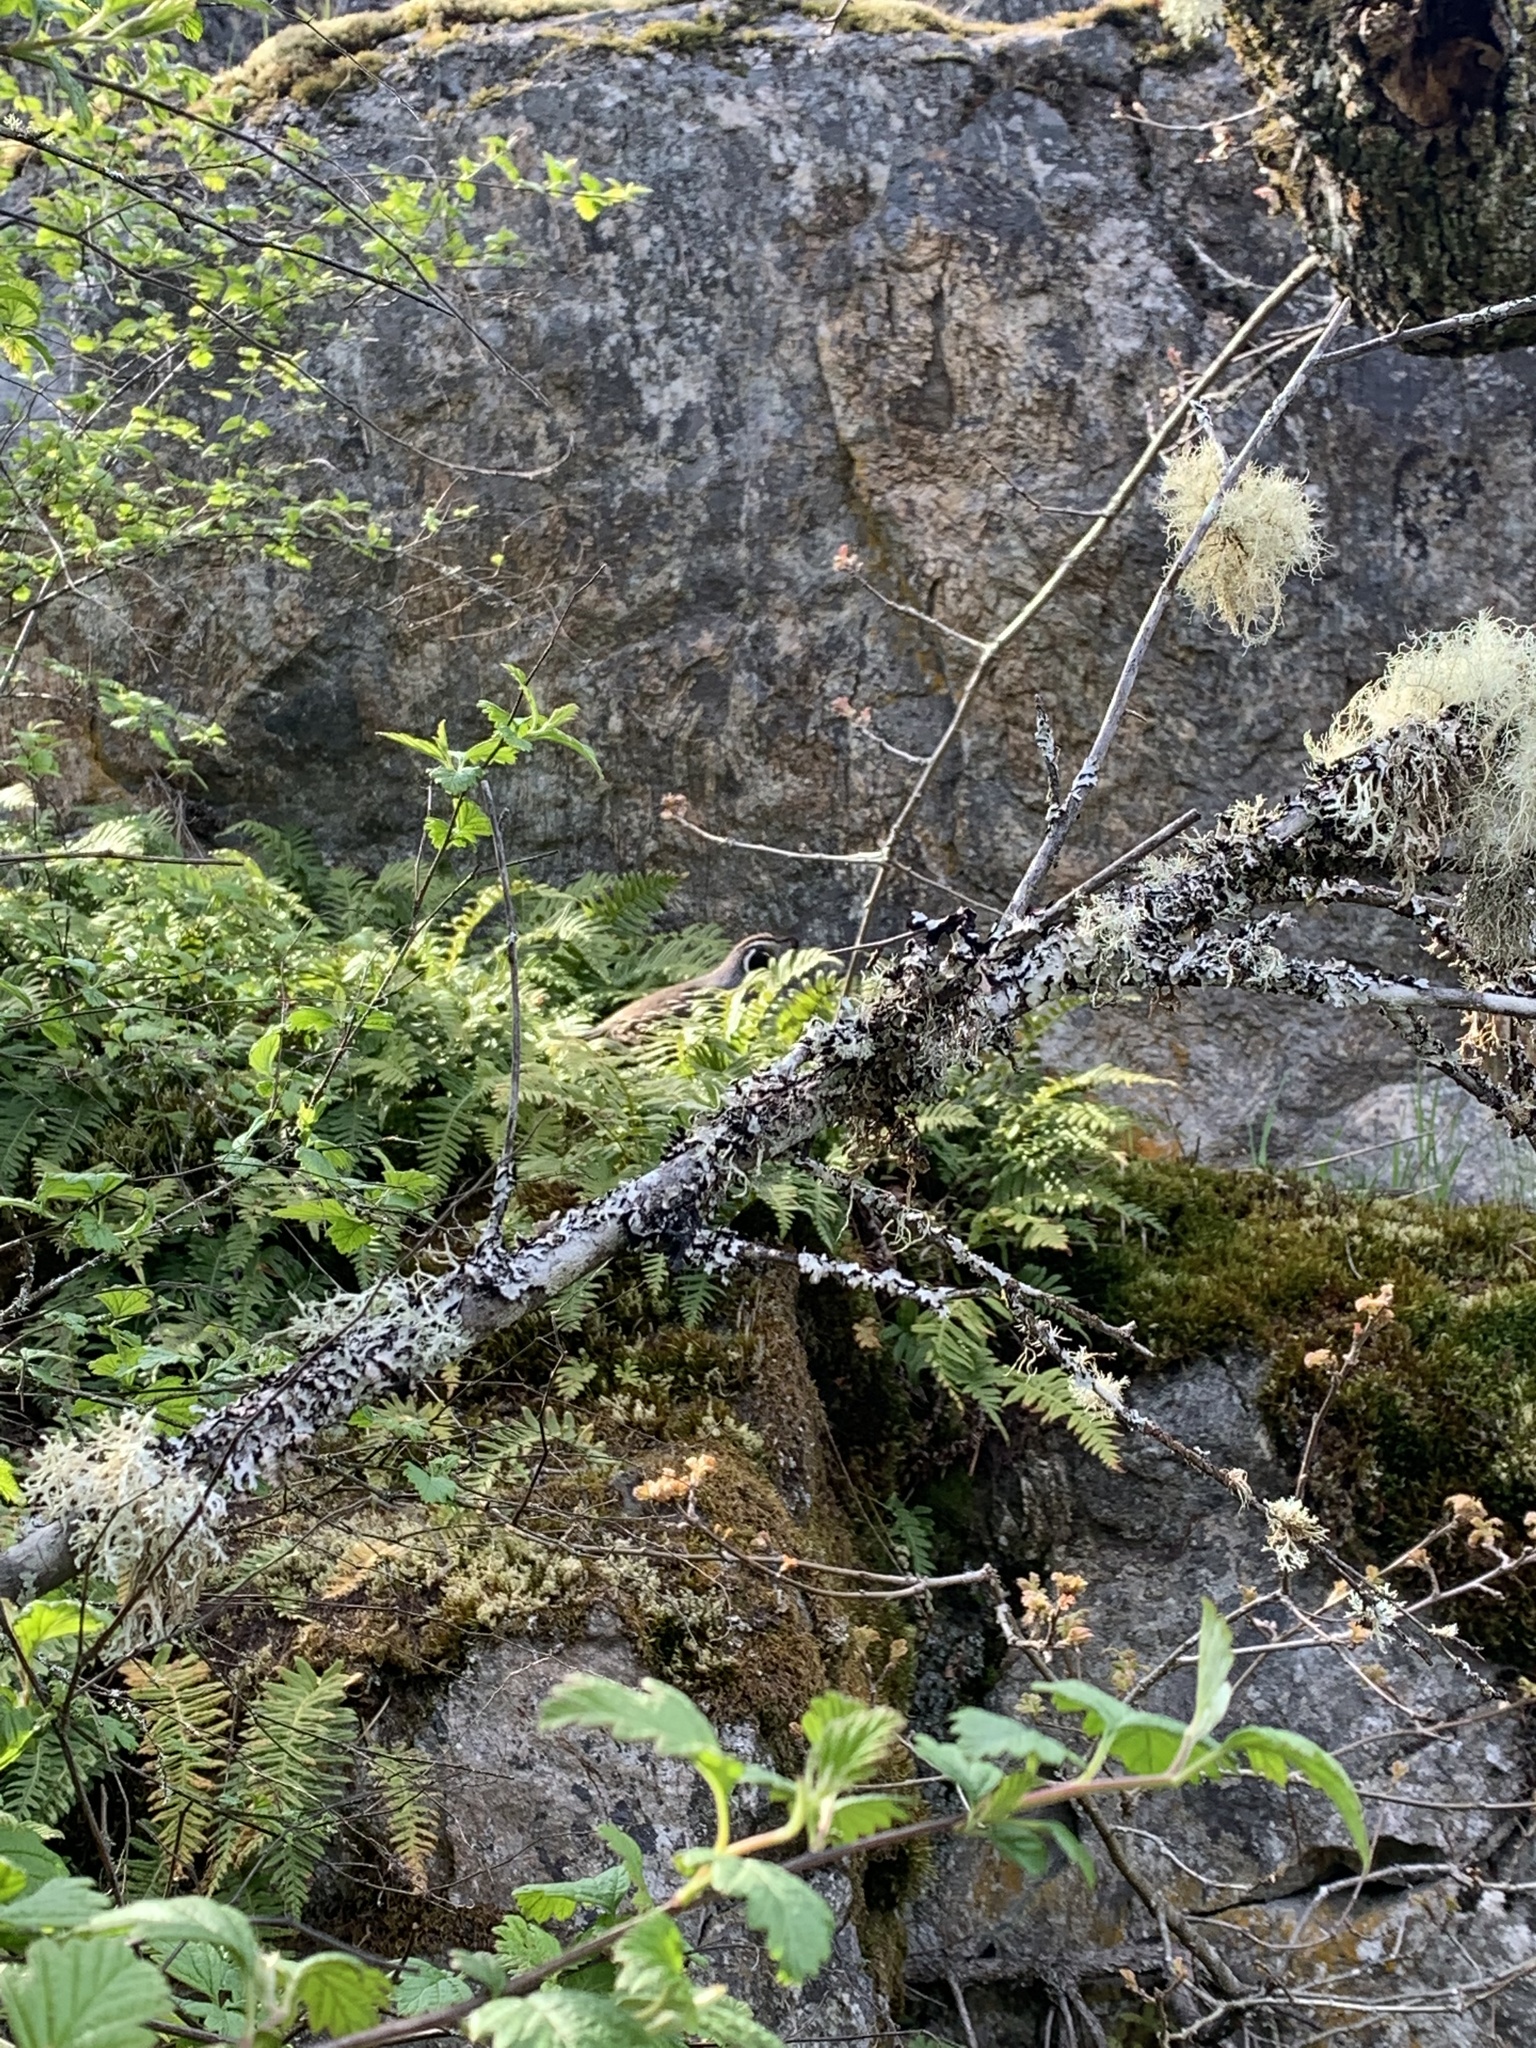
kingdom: Animalia
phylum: Chordata
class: Aves
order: Galliformes
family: Odontophoridae
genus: Callipepla
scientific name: Callipepla californica
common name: California quail
